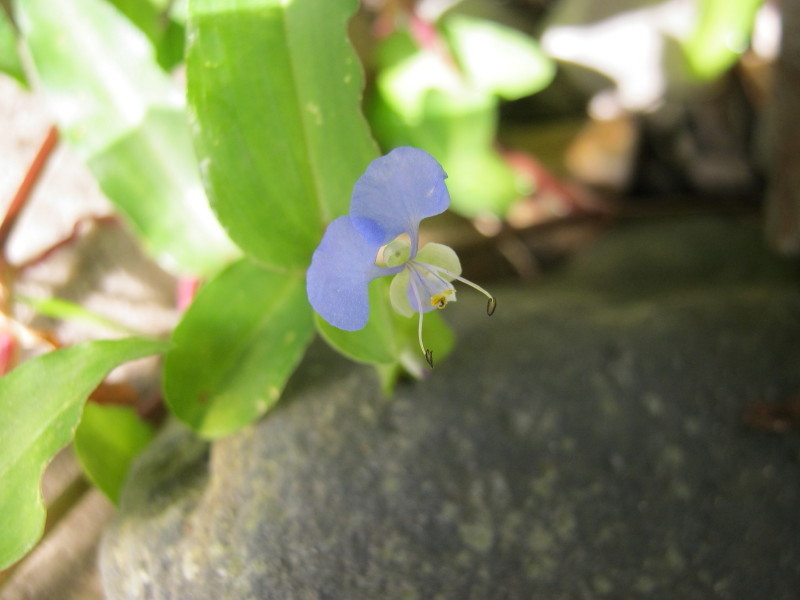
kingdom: Plantae
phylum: Tracheophyta
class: Liliopsida
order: Commelinales
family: Commelinaceae
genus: Commelina
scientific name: Commelina benghalensis
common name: Jio
